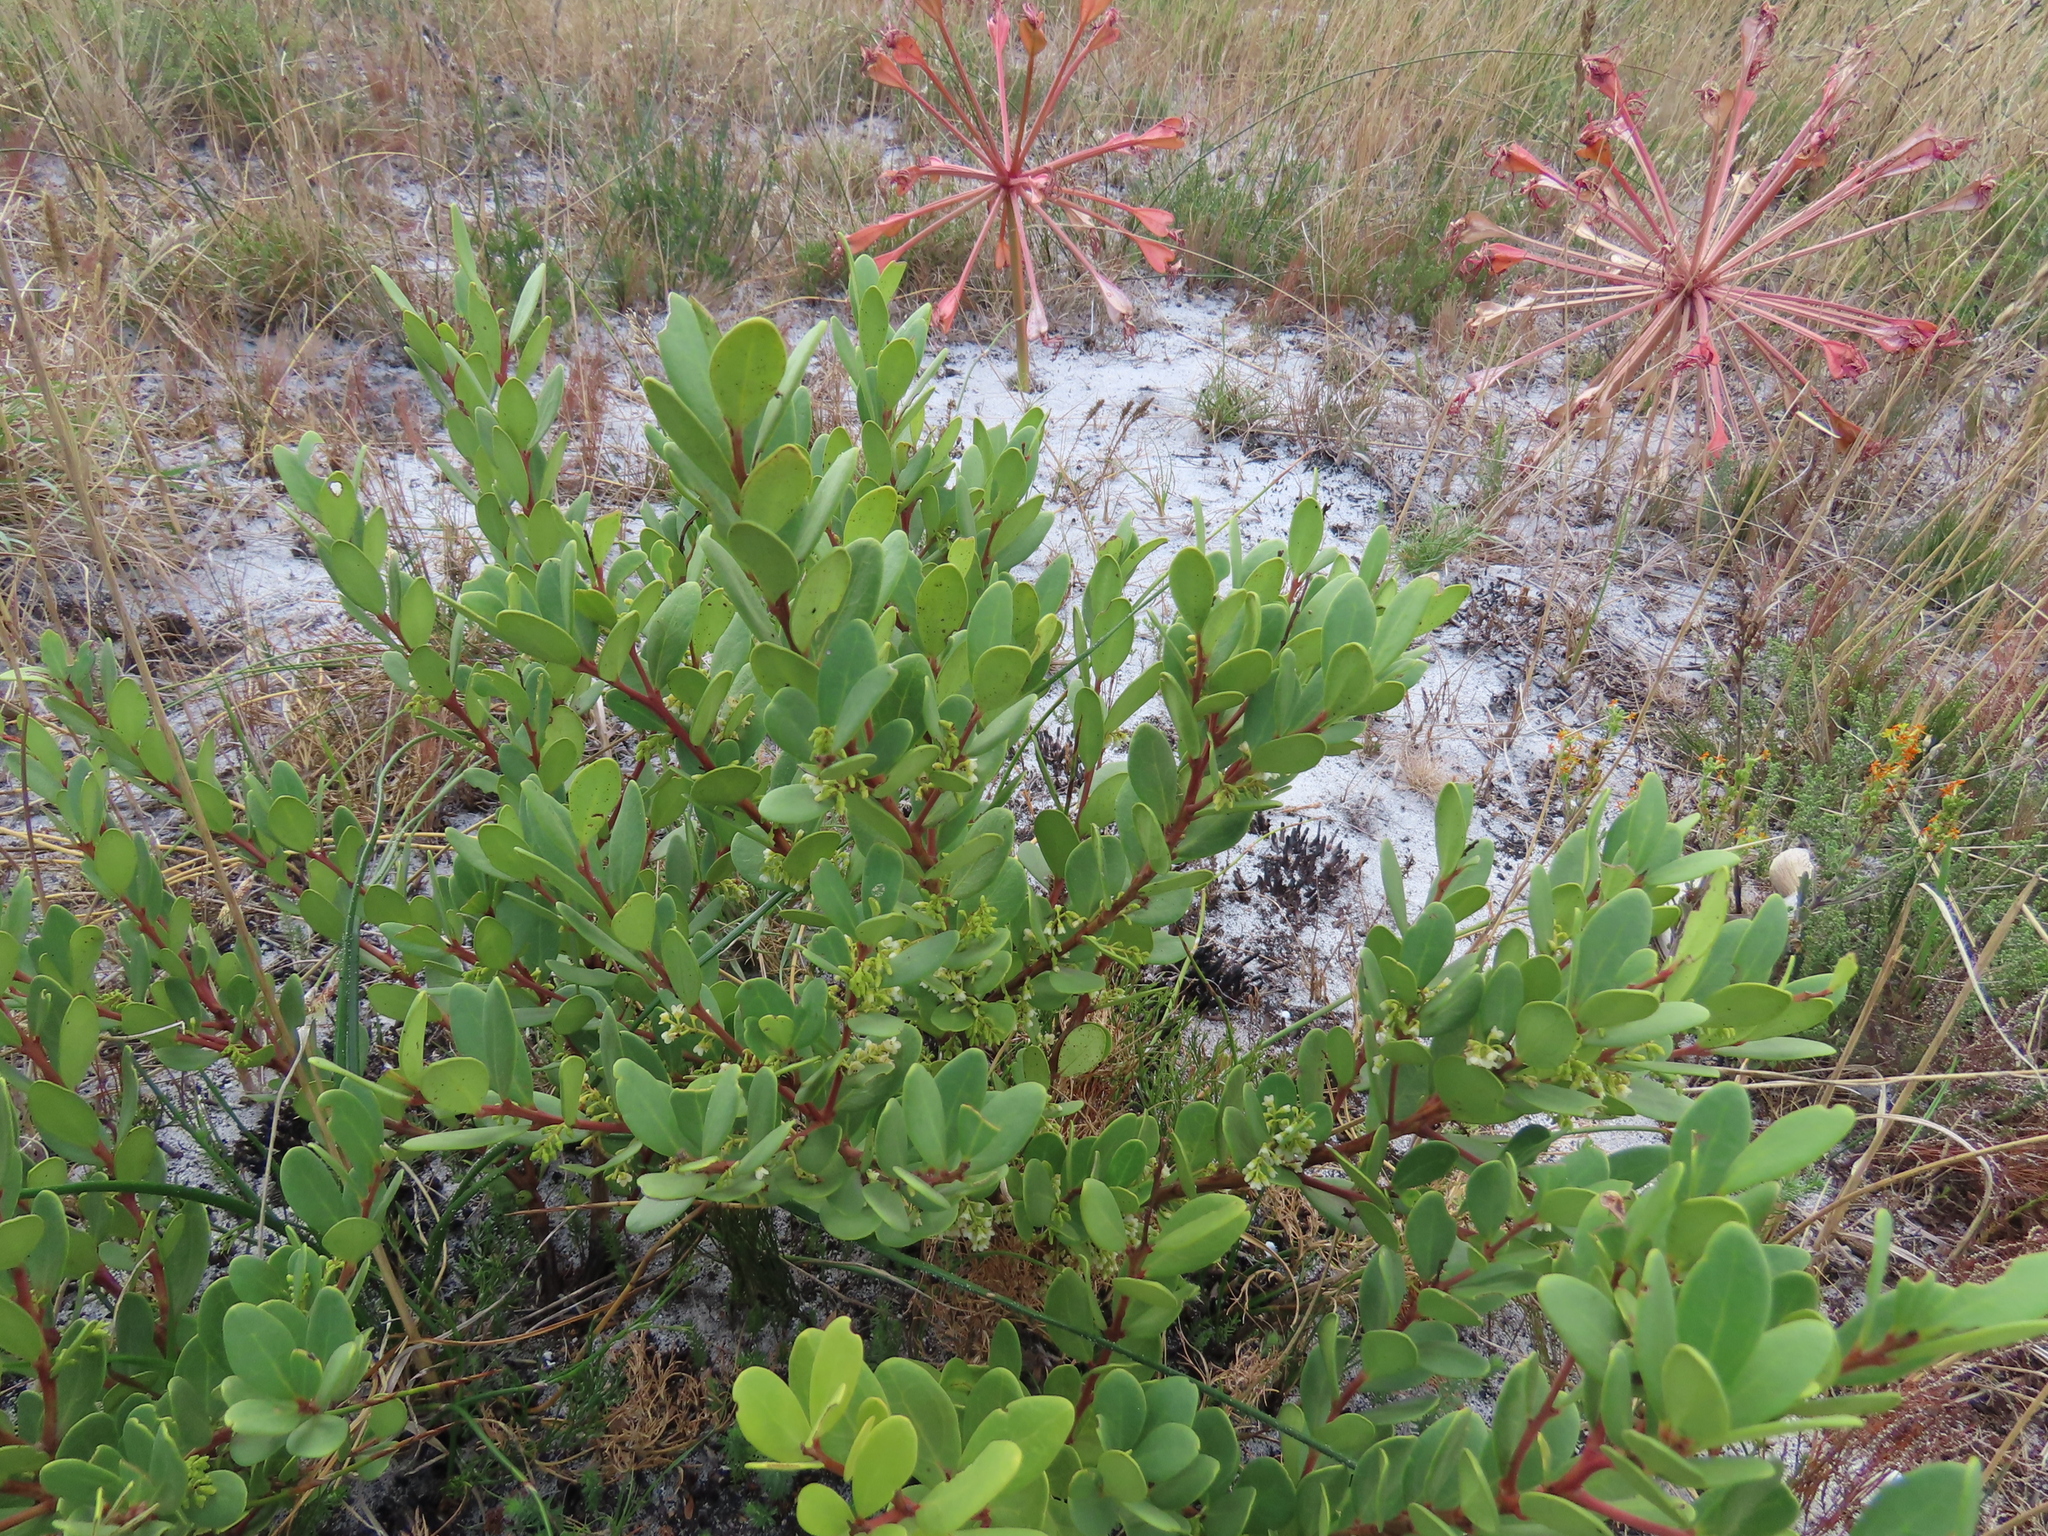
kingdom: Plantae
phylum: Tracheophyta
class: Magnoliopsida
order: Ericales
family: Ebenaceae
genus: Euclea
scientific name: Euclea racemosa
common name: Dune guarri
